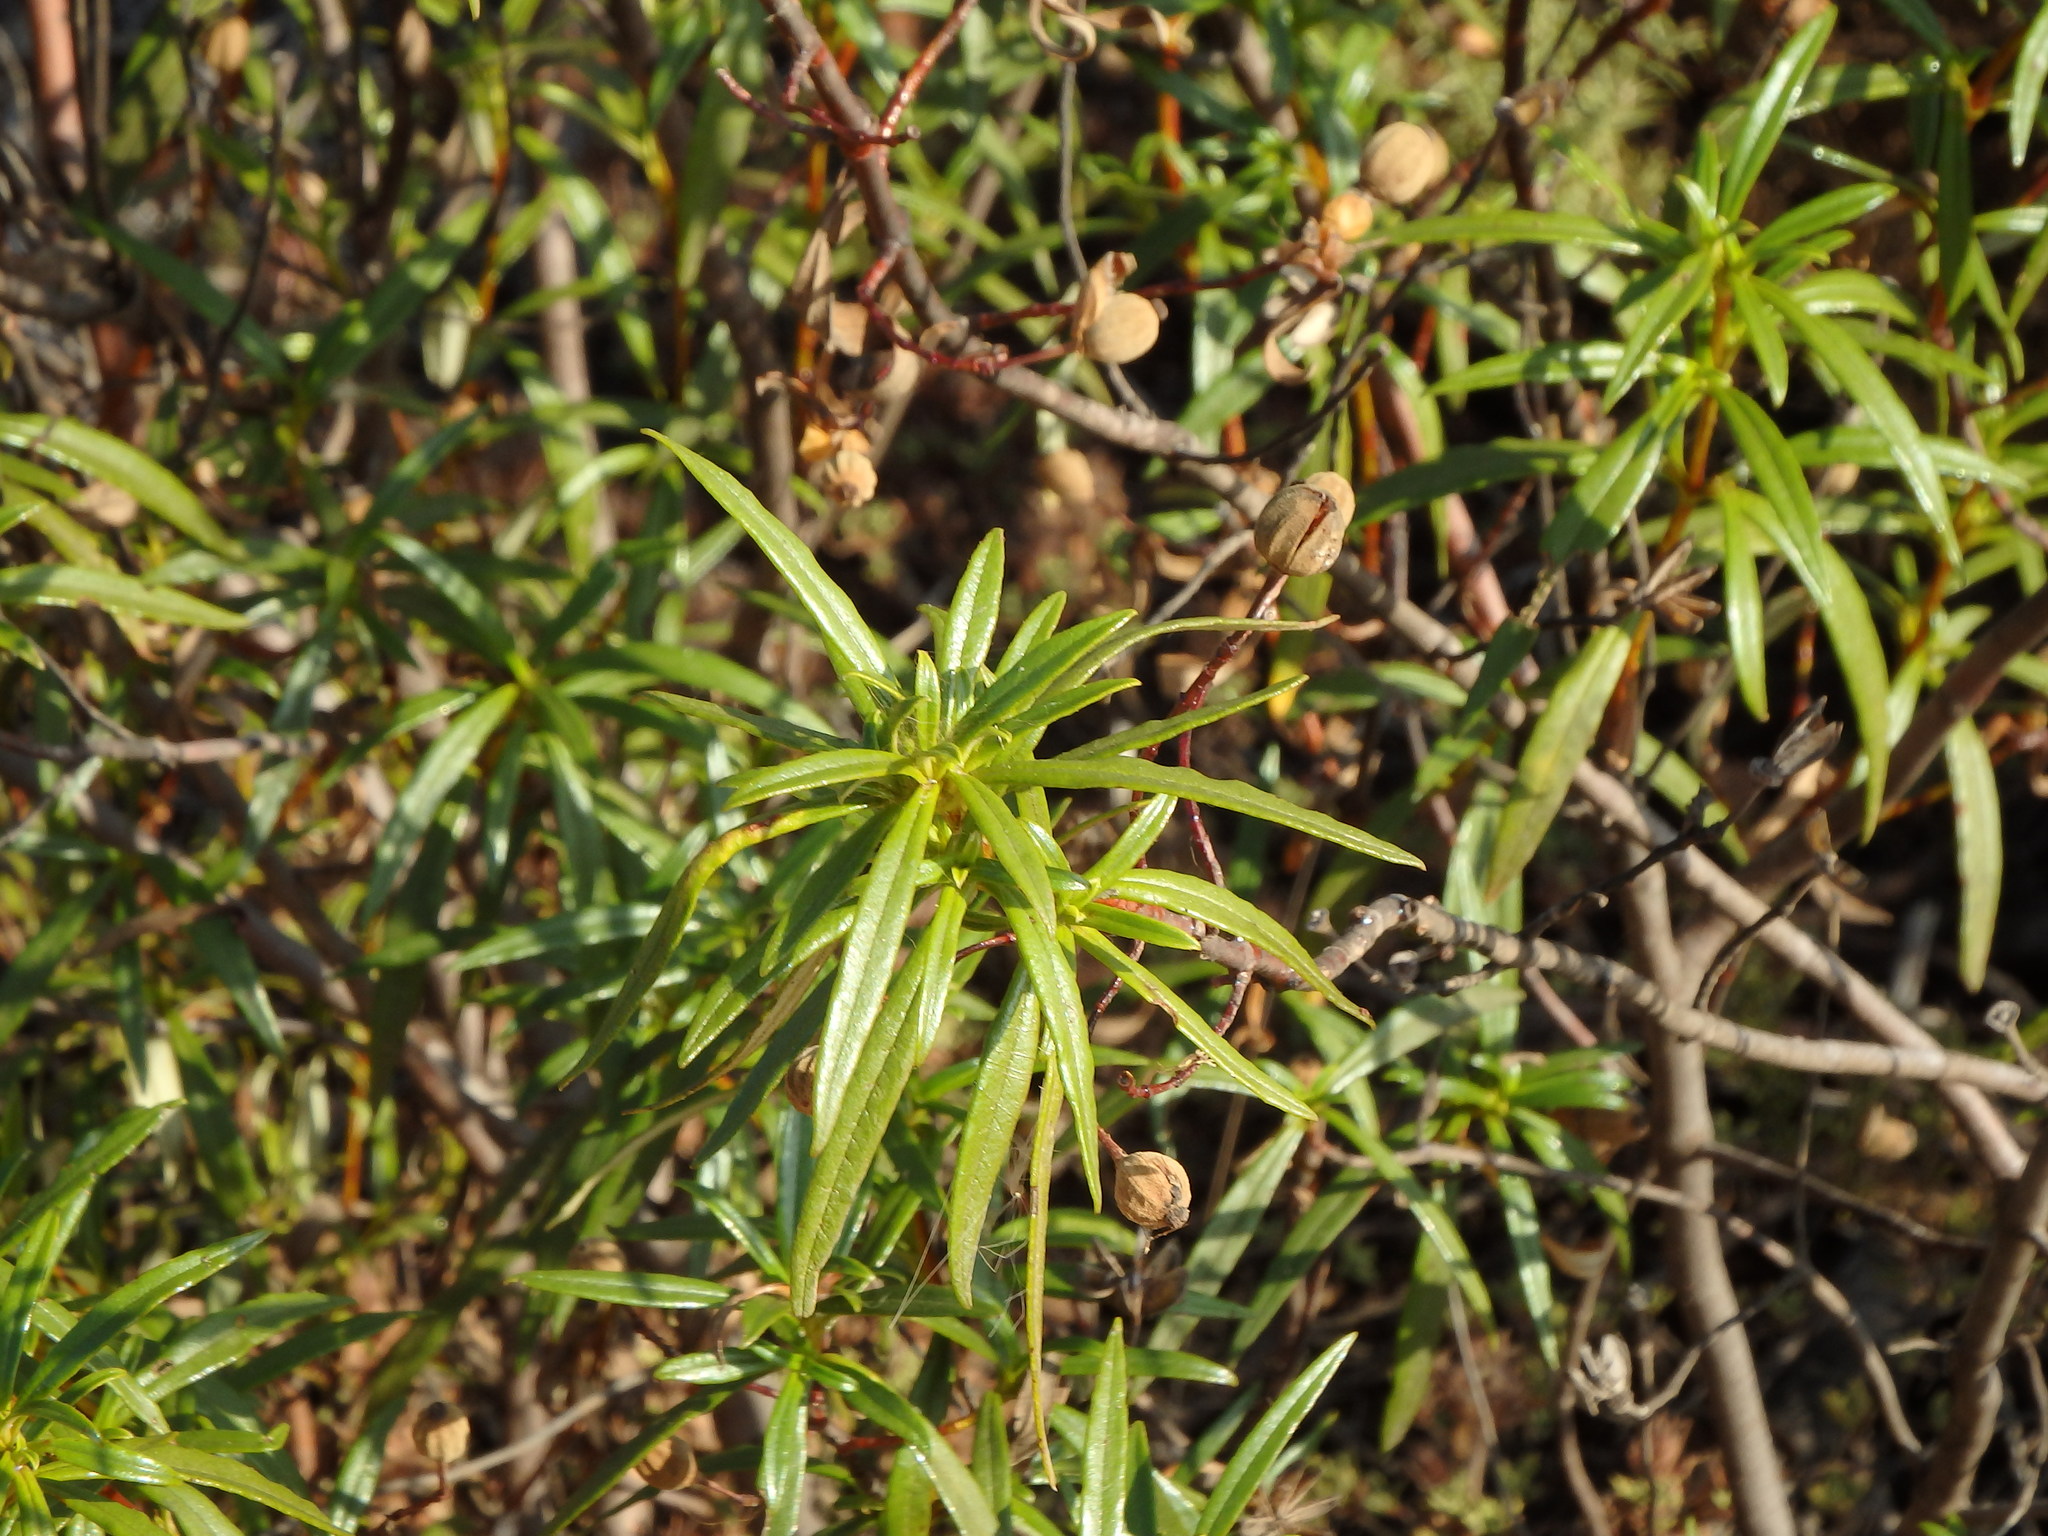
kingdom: Plantae
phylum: Tracheophyta
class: Magnoliopsida
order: Malvales
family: Cistaceae
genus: Cistus
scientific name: Cistus ladanifer
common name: Common gum cistus
